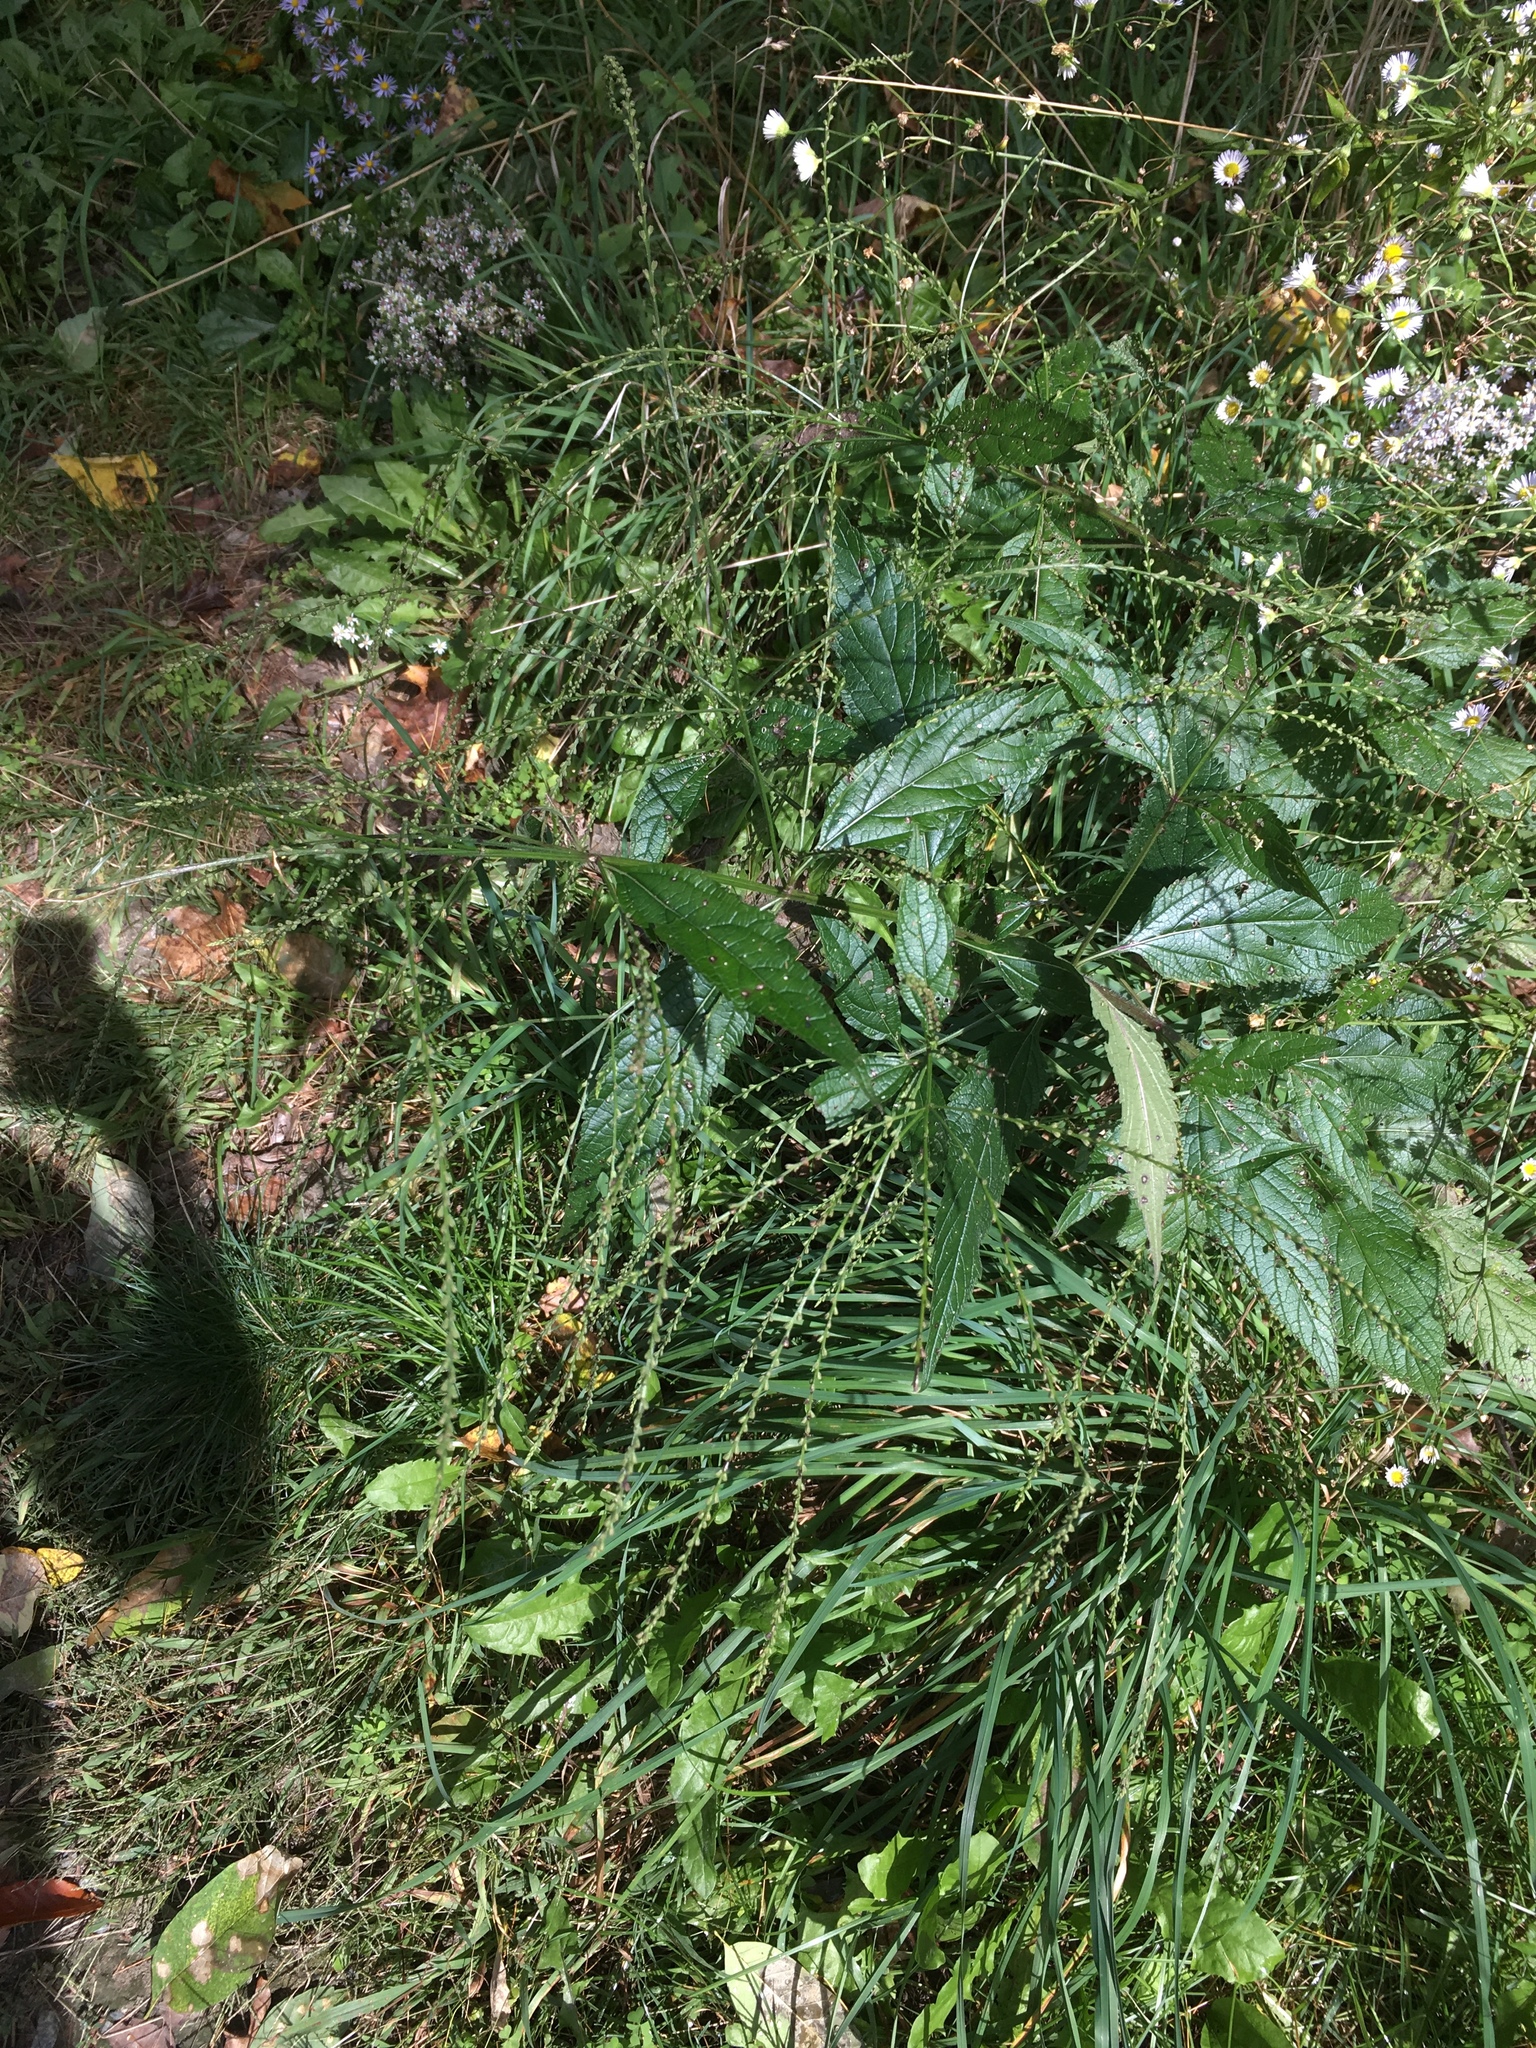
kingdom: Plantae
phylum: Tracheophyta
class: Magnoliopsida
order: Lamiales
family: Verbenaceae
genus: Verbena
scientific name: Verbena urticifolia
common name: Nettle-leaved vervain
